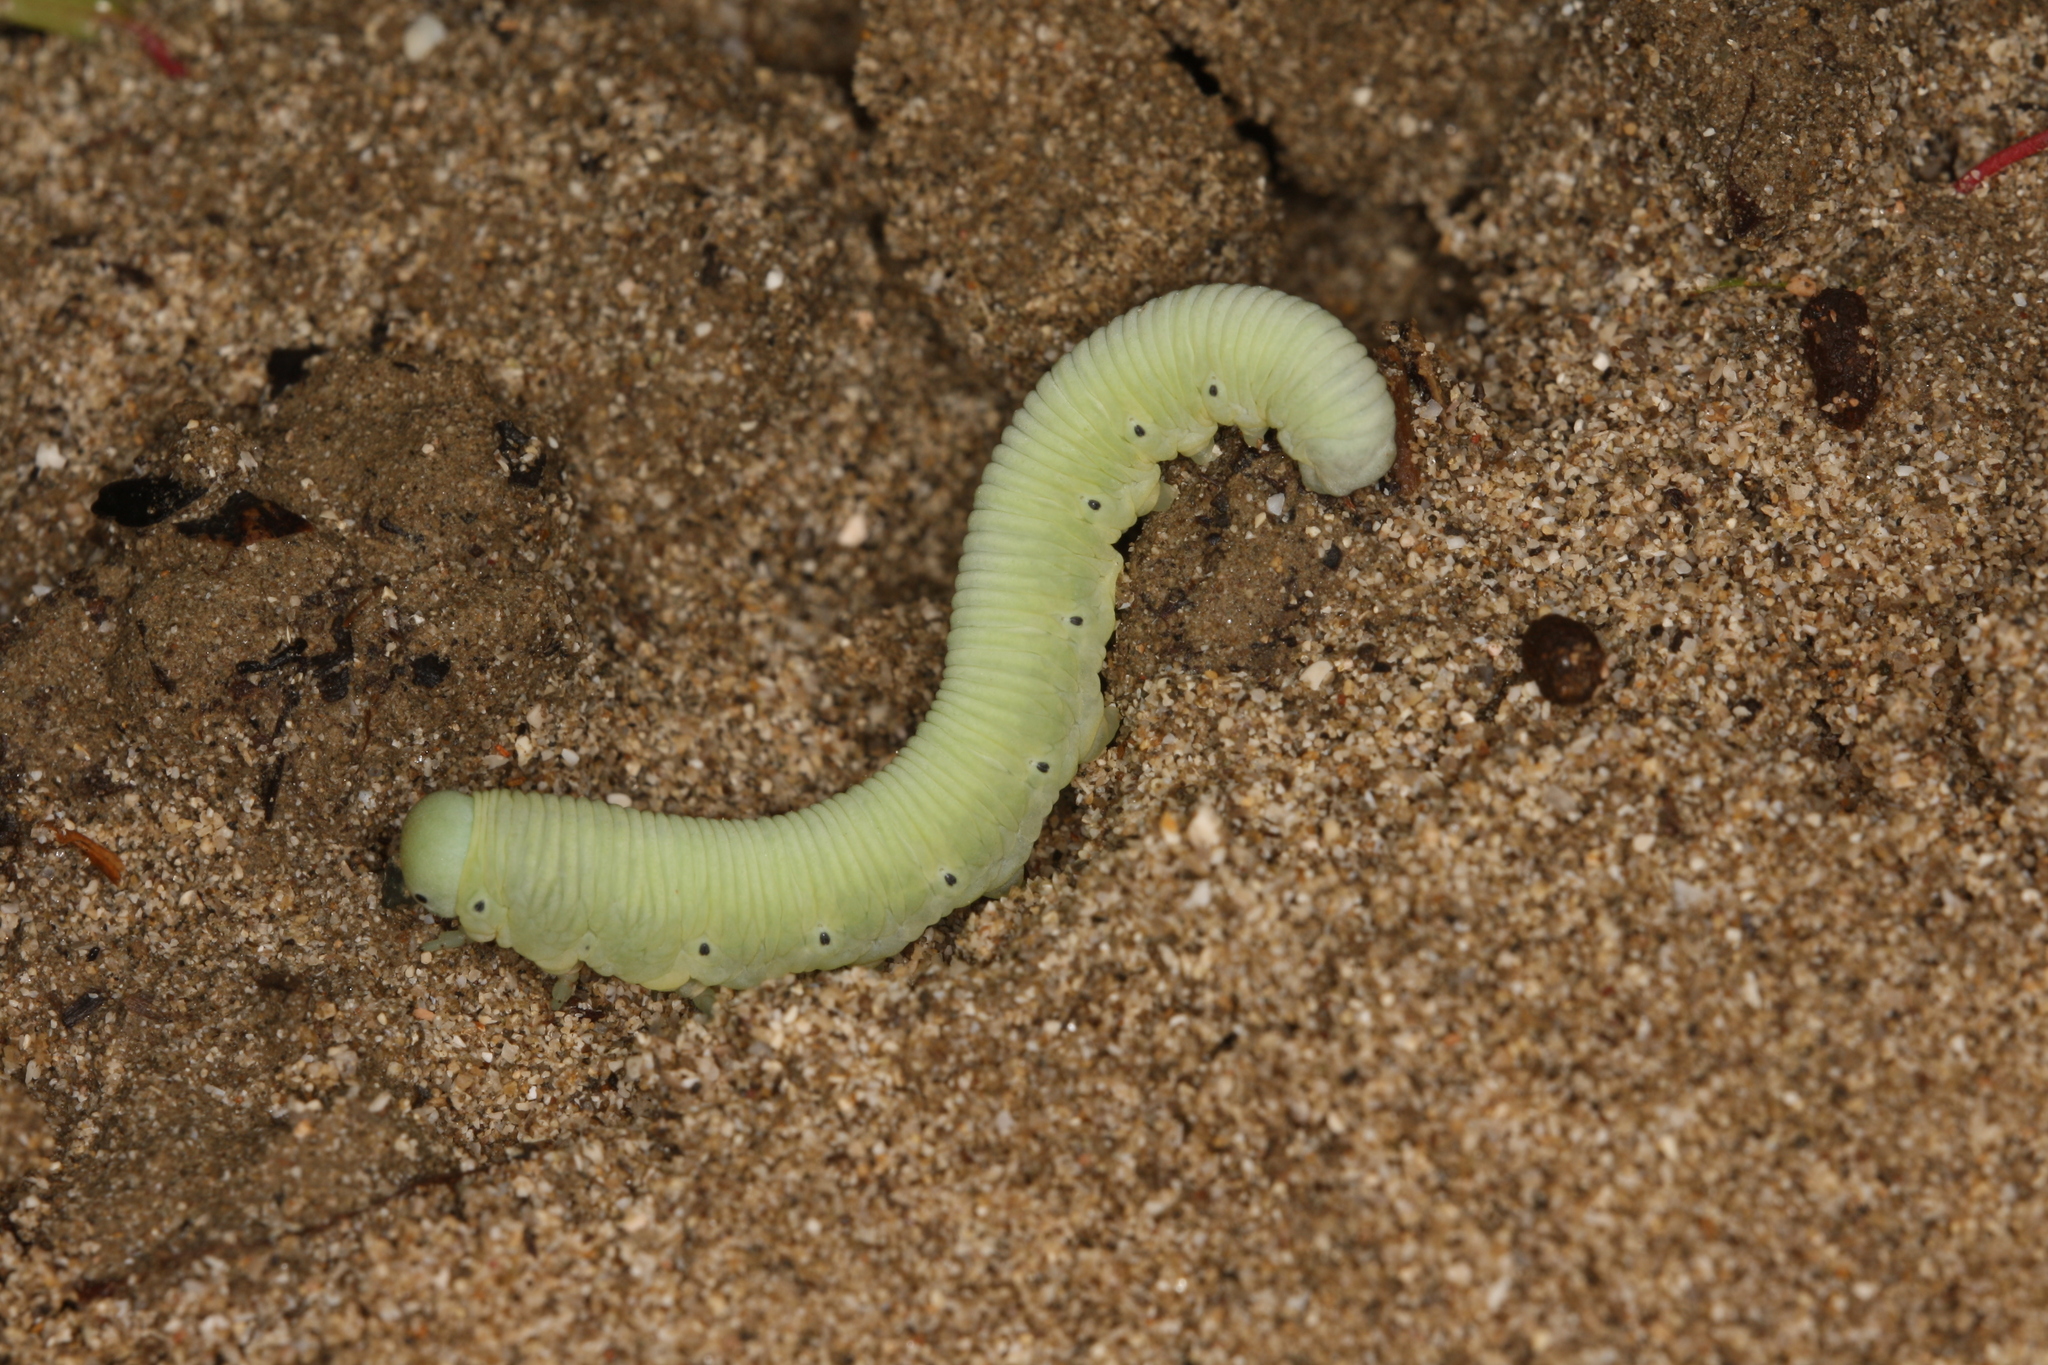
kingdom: Animalia
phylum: Arthropoda
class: Insecta
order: Hymenoptera
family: Cimbicidae
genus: Pseudoclavellaria
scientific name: Pseudoclavellaria amerinae
